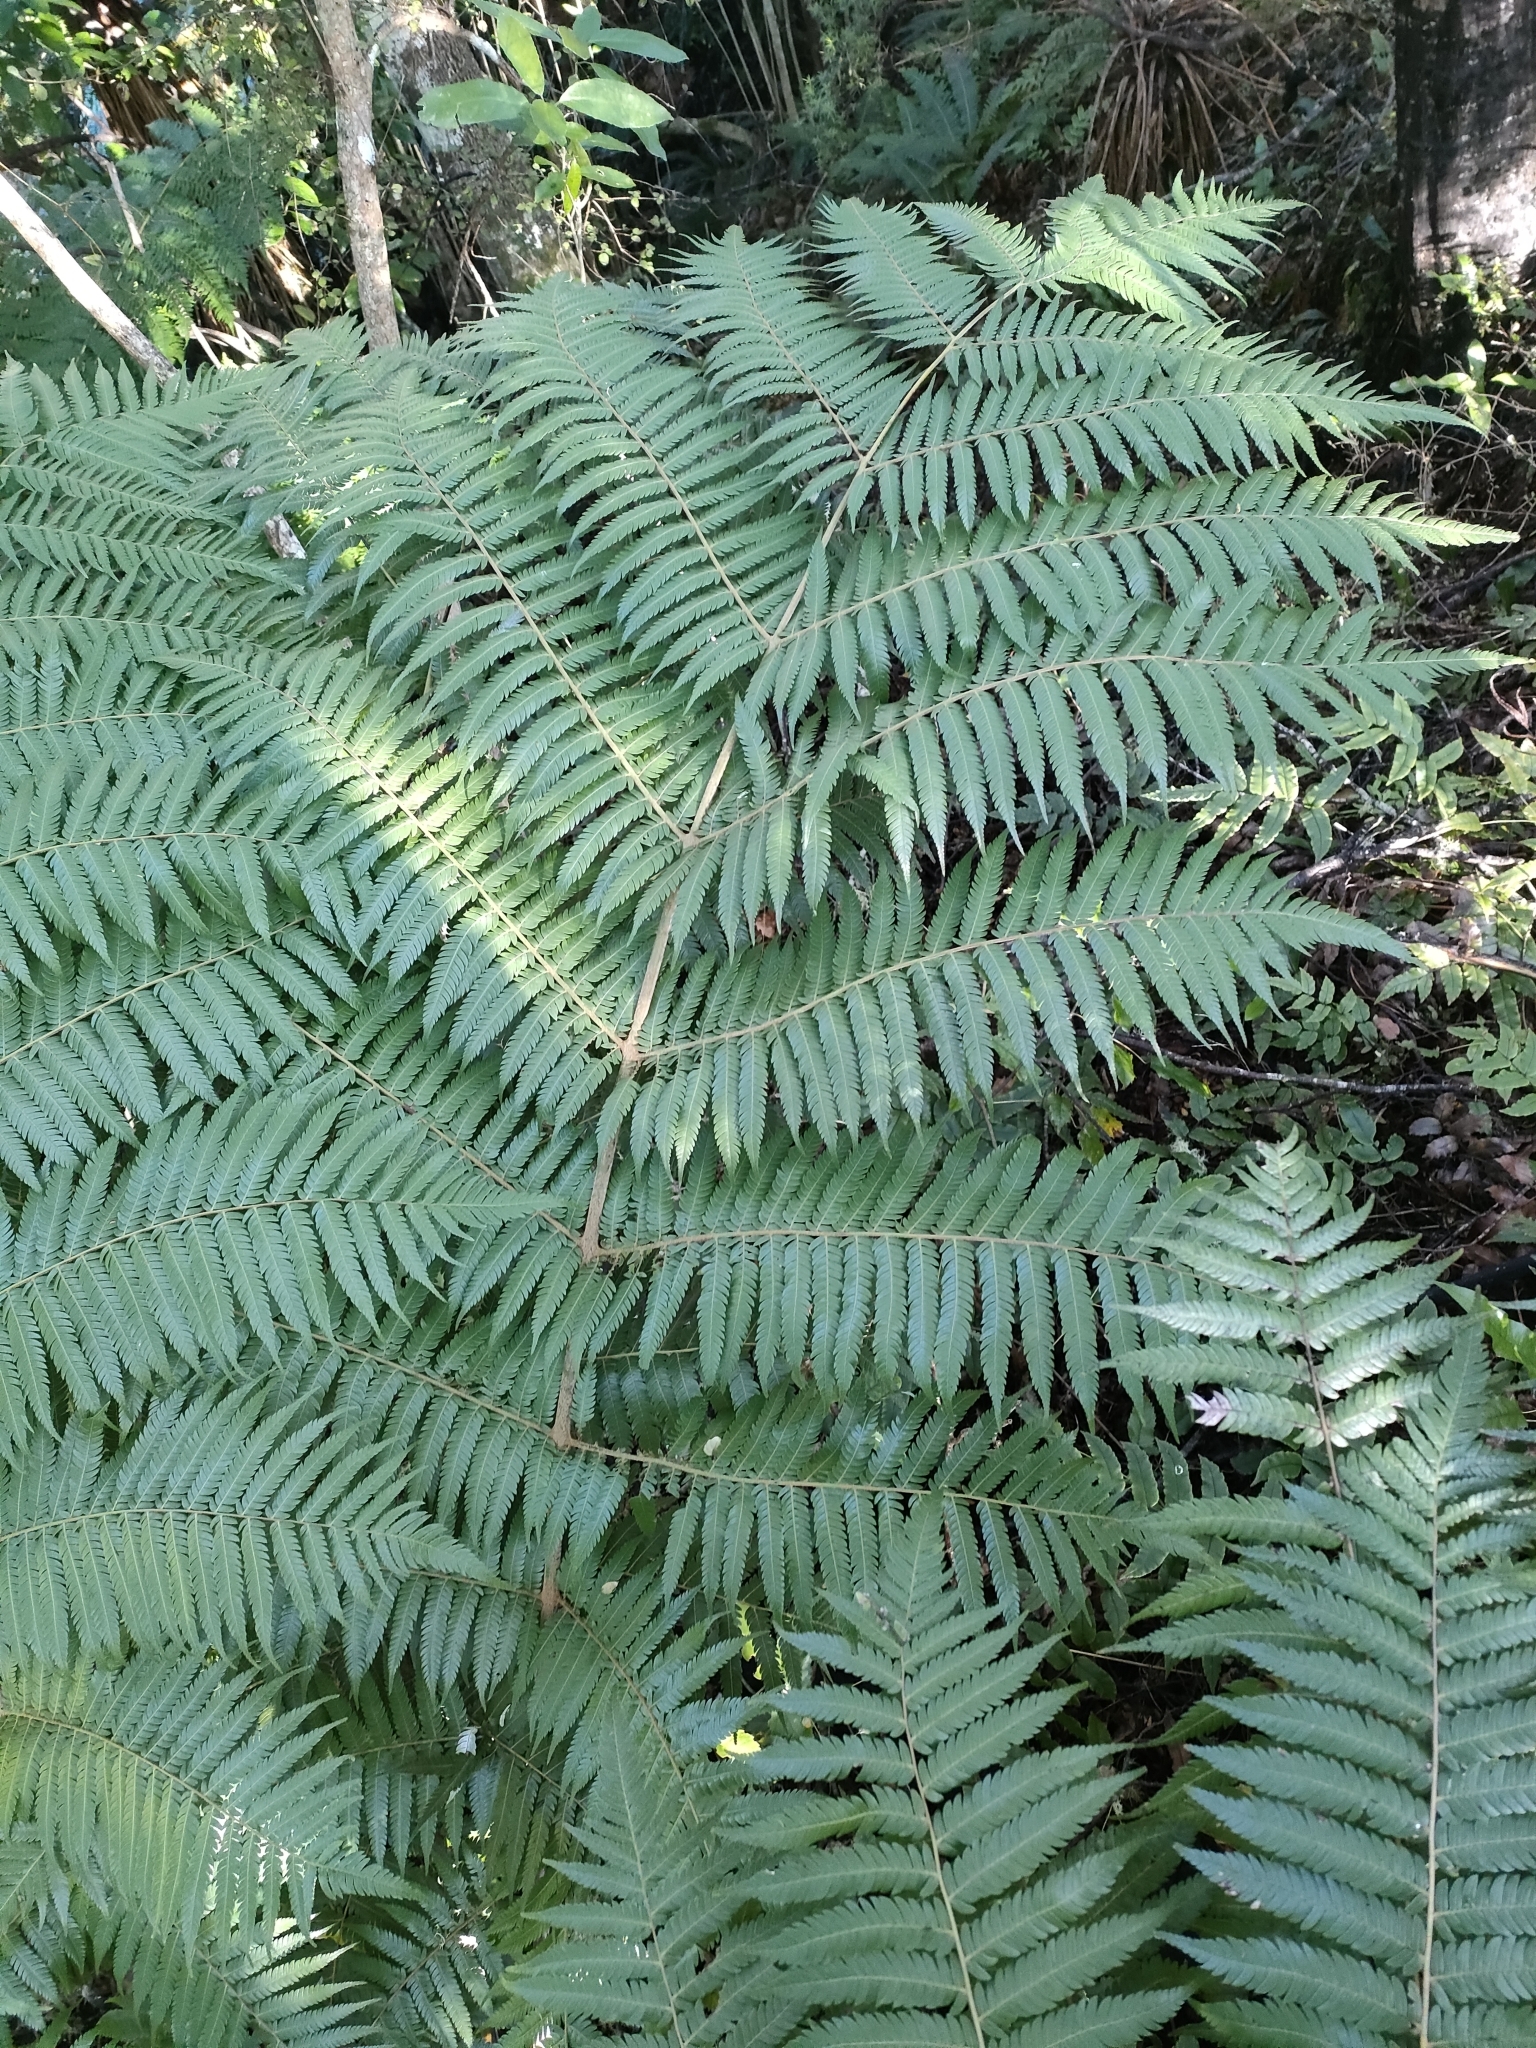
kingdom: Plantae
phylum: Tracheophyta
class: Polypodiopsida
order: Cyatheales
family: Cyatheaceae
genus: Alsophila
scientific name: Alsophila dealbata
